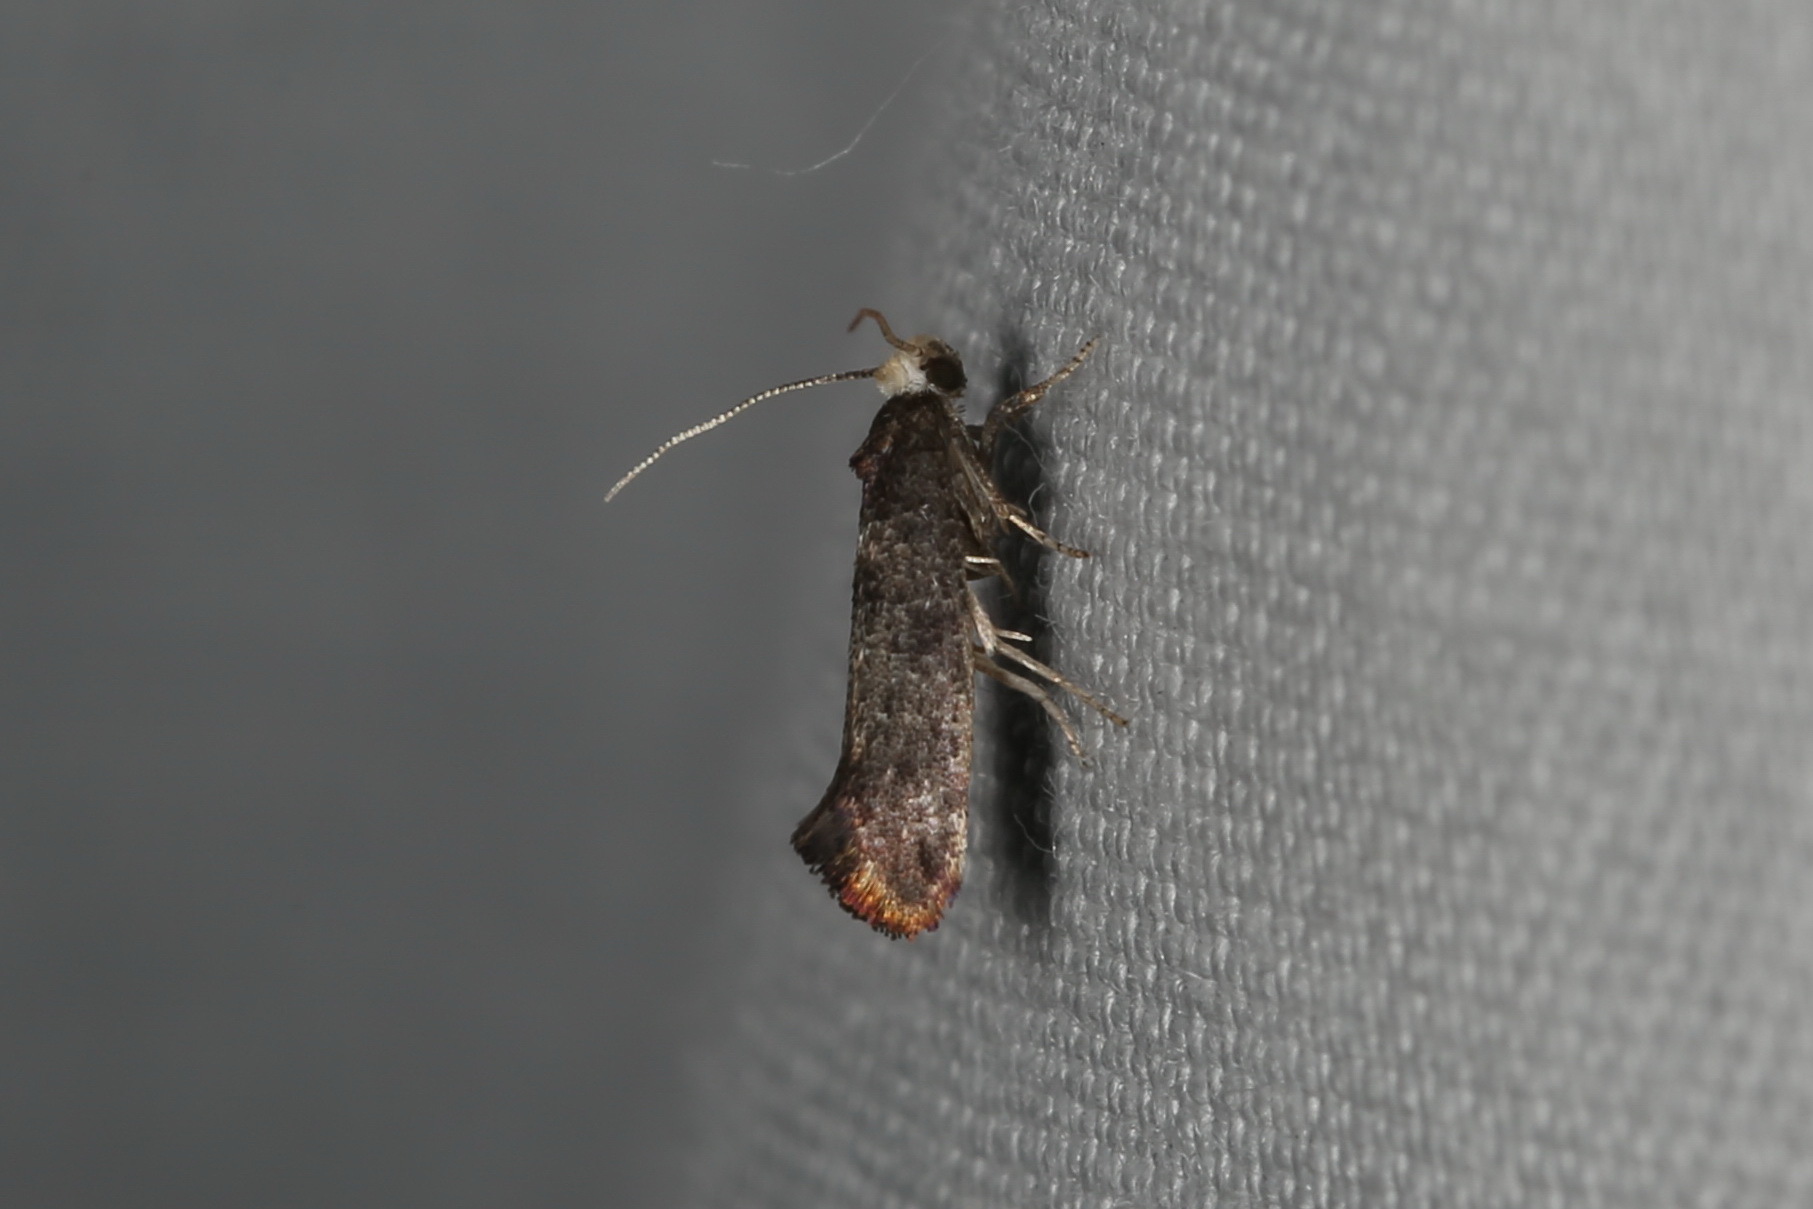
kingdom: Animalia
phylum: Arthropoda
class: Insecta
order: Lepidoptera
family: Yponomeutidae
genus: Swammerdamia
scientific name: Swammerdamia pyrella
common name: Little ermine moth
